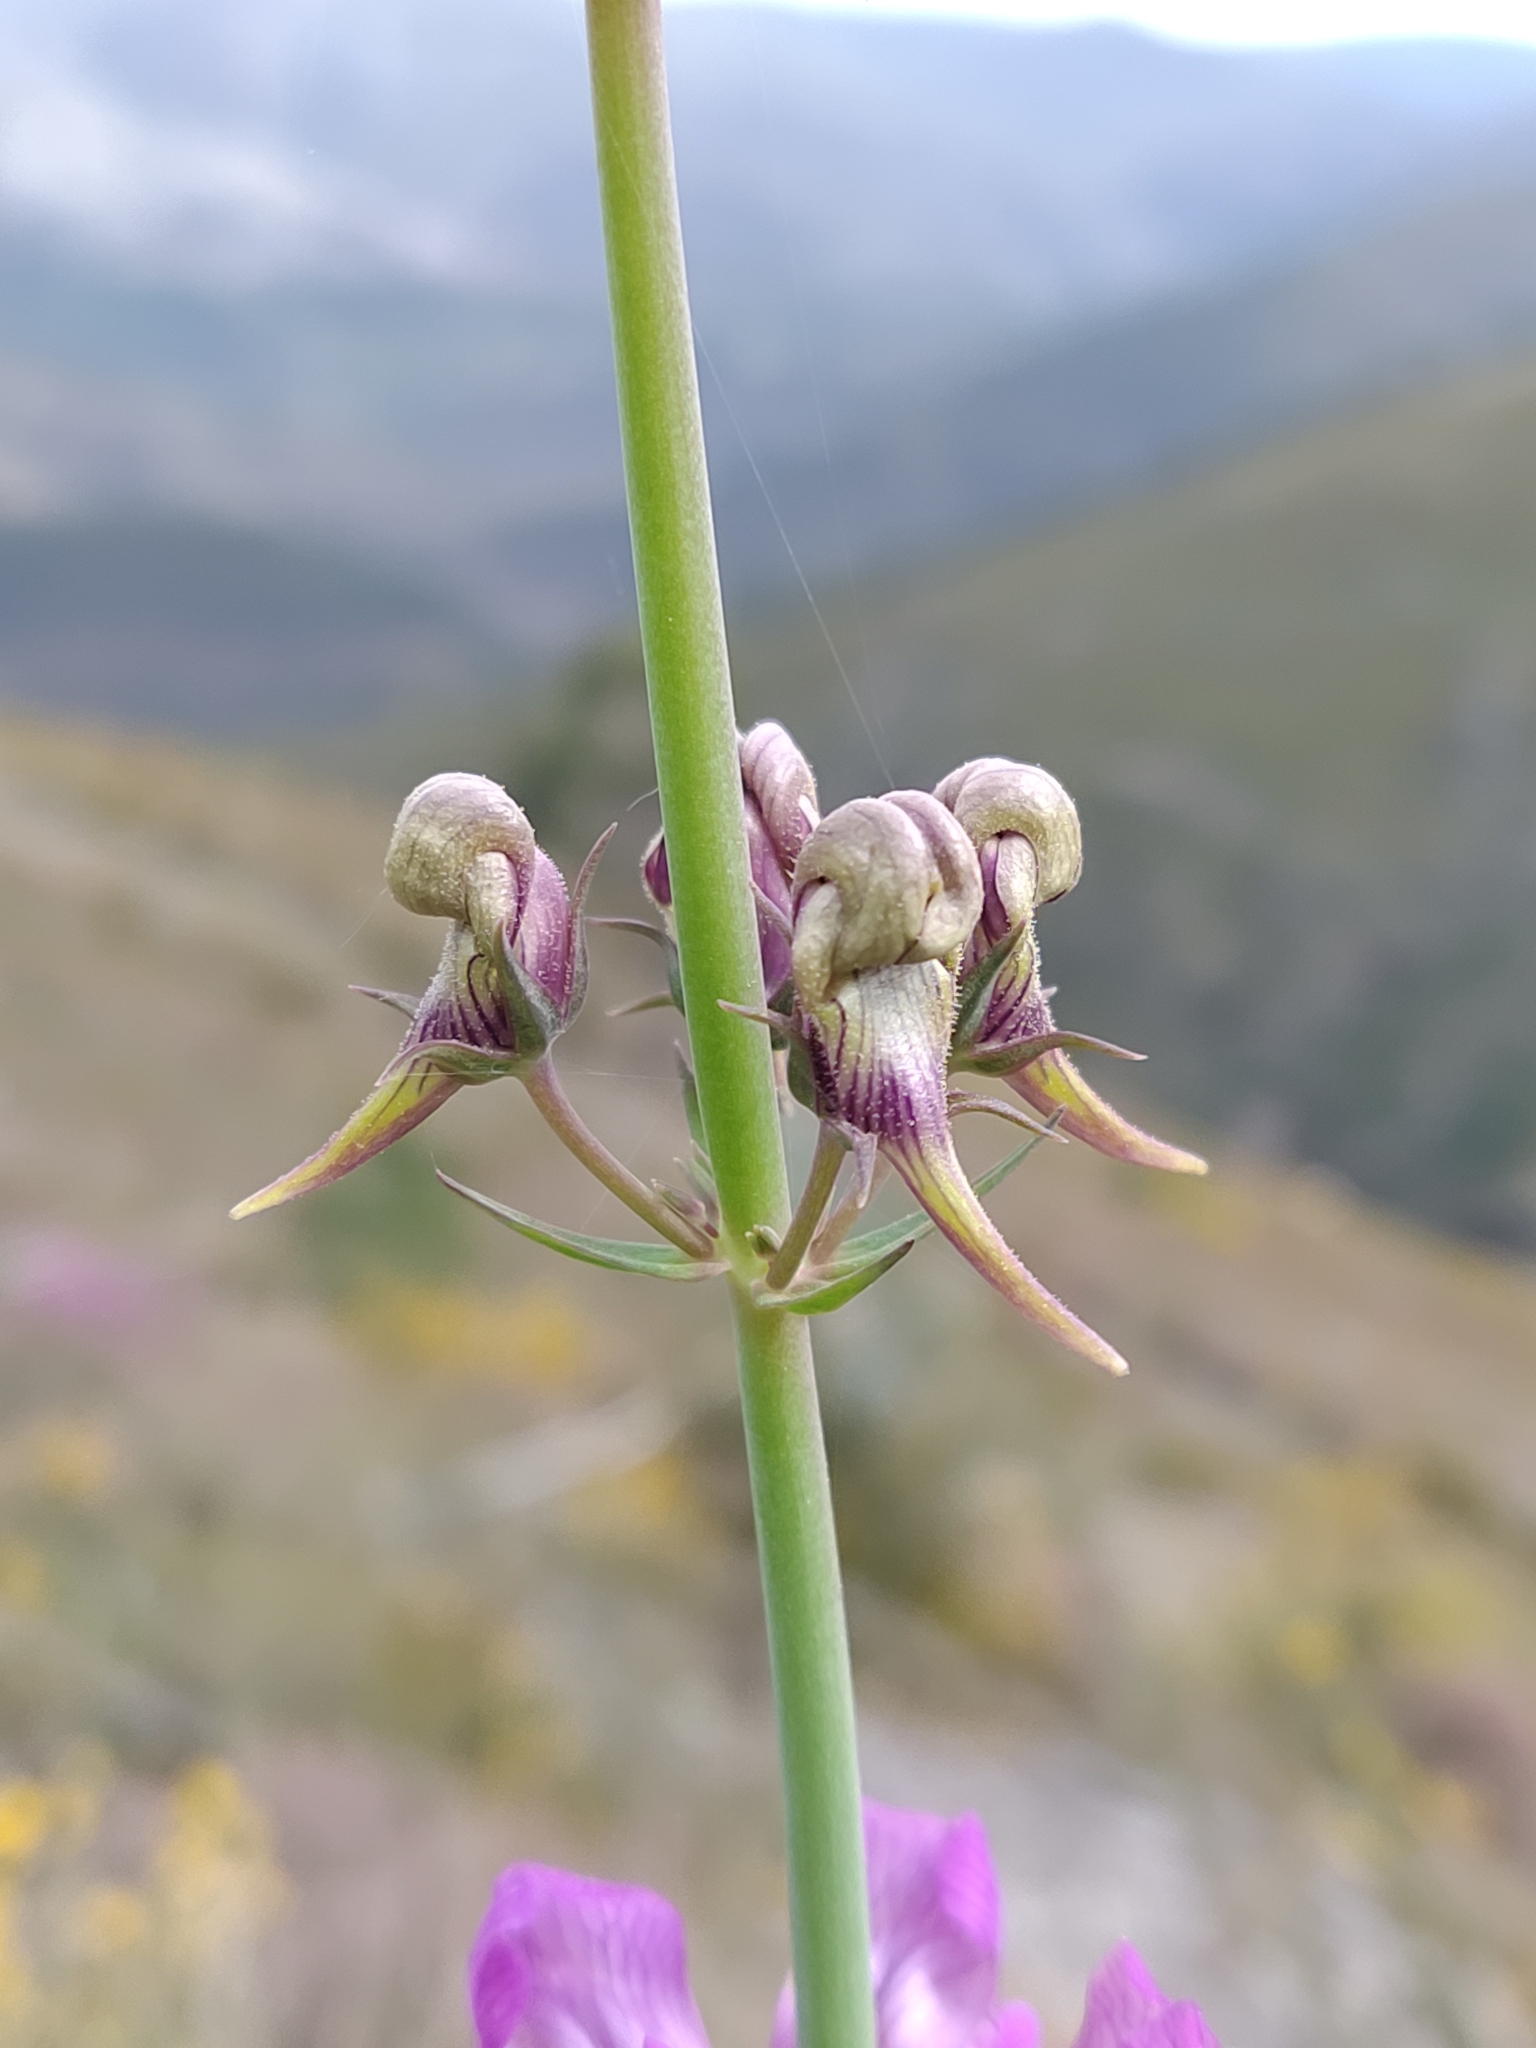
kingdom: Plantae
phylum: Tracheophyta
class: Magnoliopsida
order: Lamiales
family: Plantaginaceae
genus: Linaria
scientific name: Linaria triornithophora
